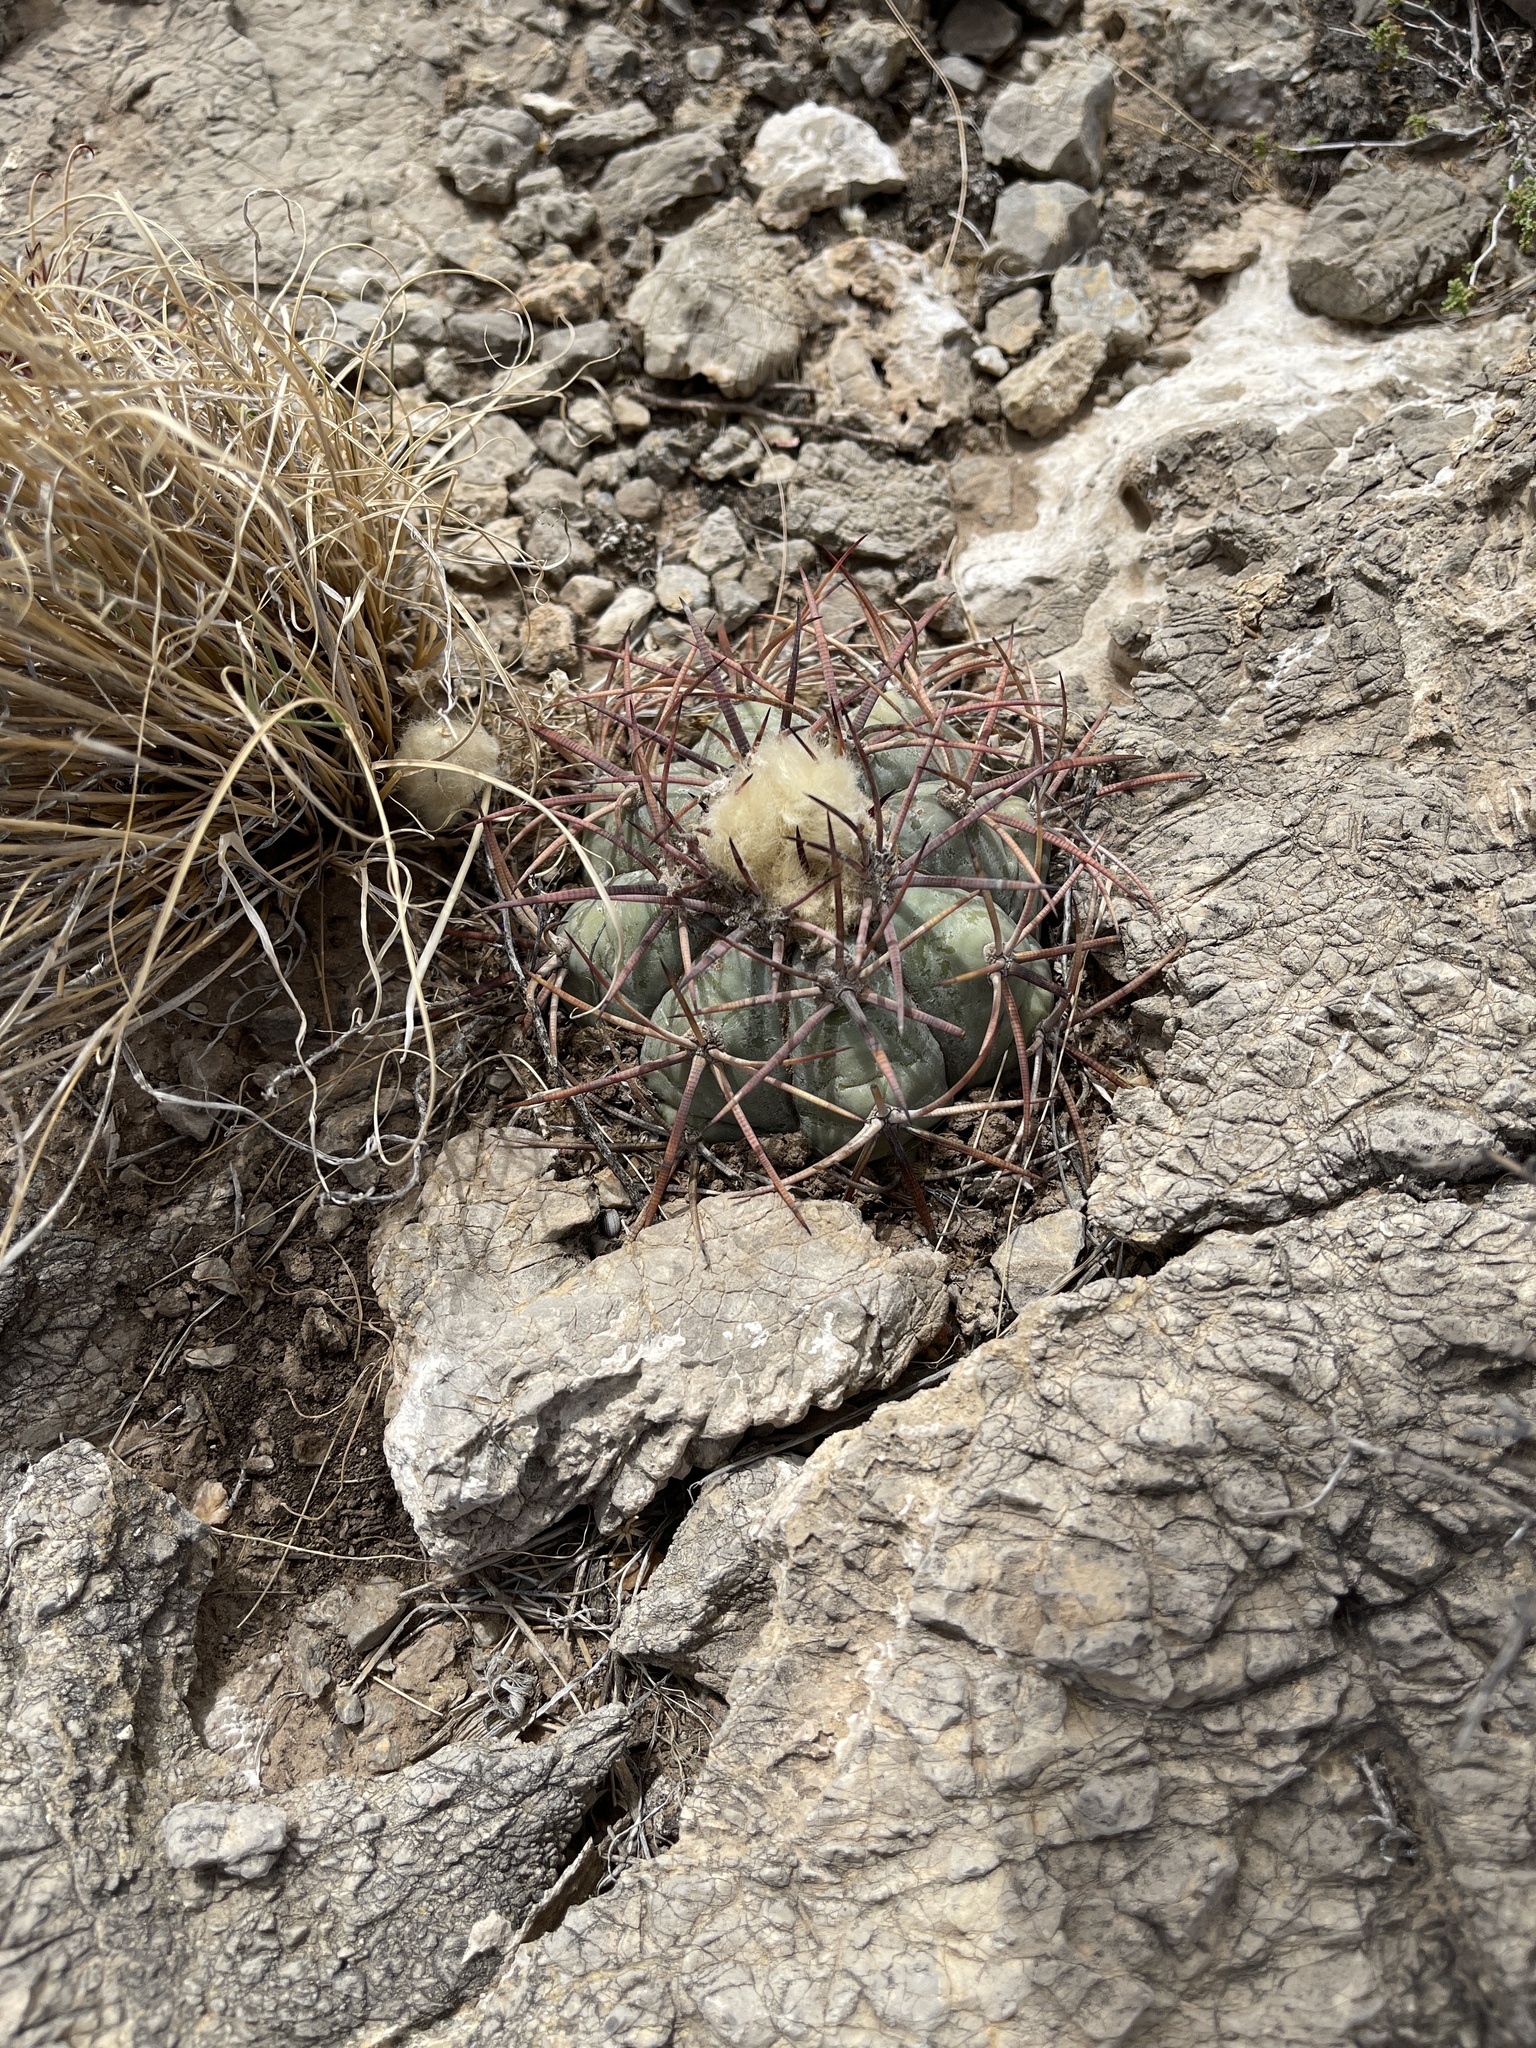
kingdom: Plantae
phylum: Tracheophyta
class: Magnoliopsida
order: Caryophyllales
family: Cactaceae
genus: Echinocactus
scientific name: Echinocactus horizonthalonius
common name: Devilshead
